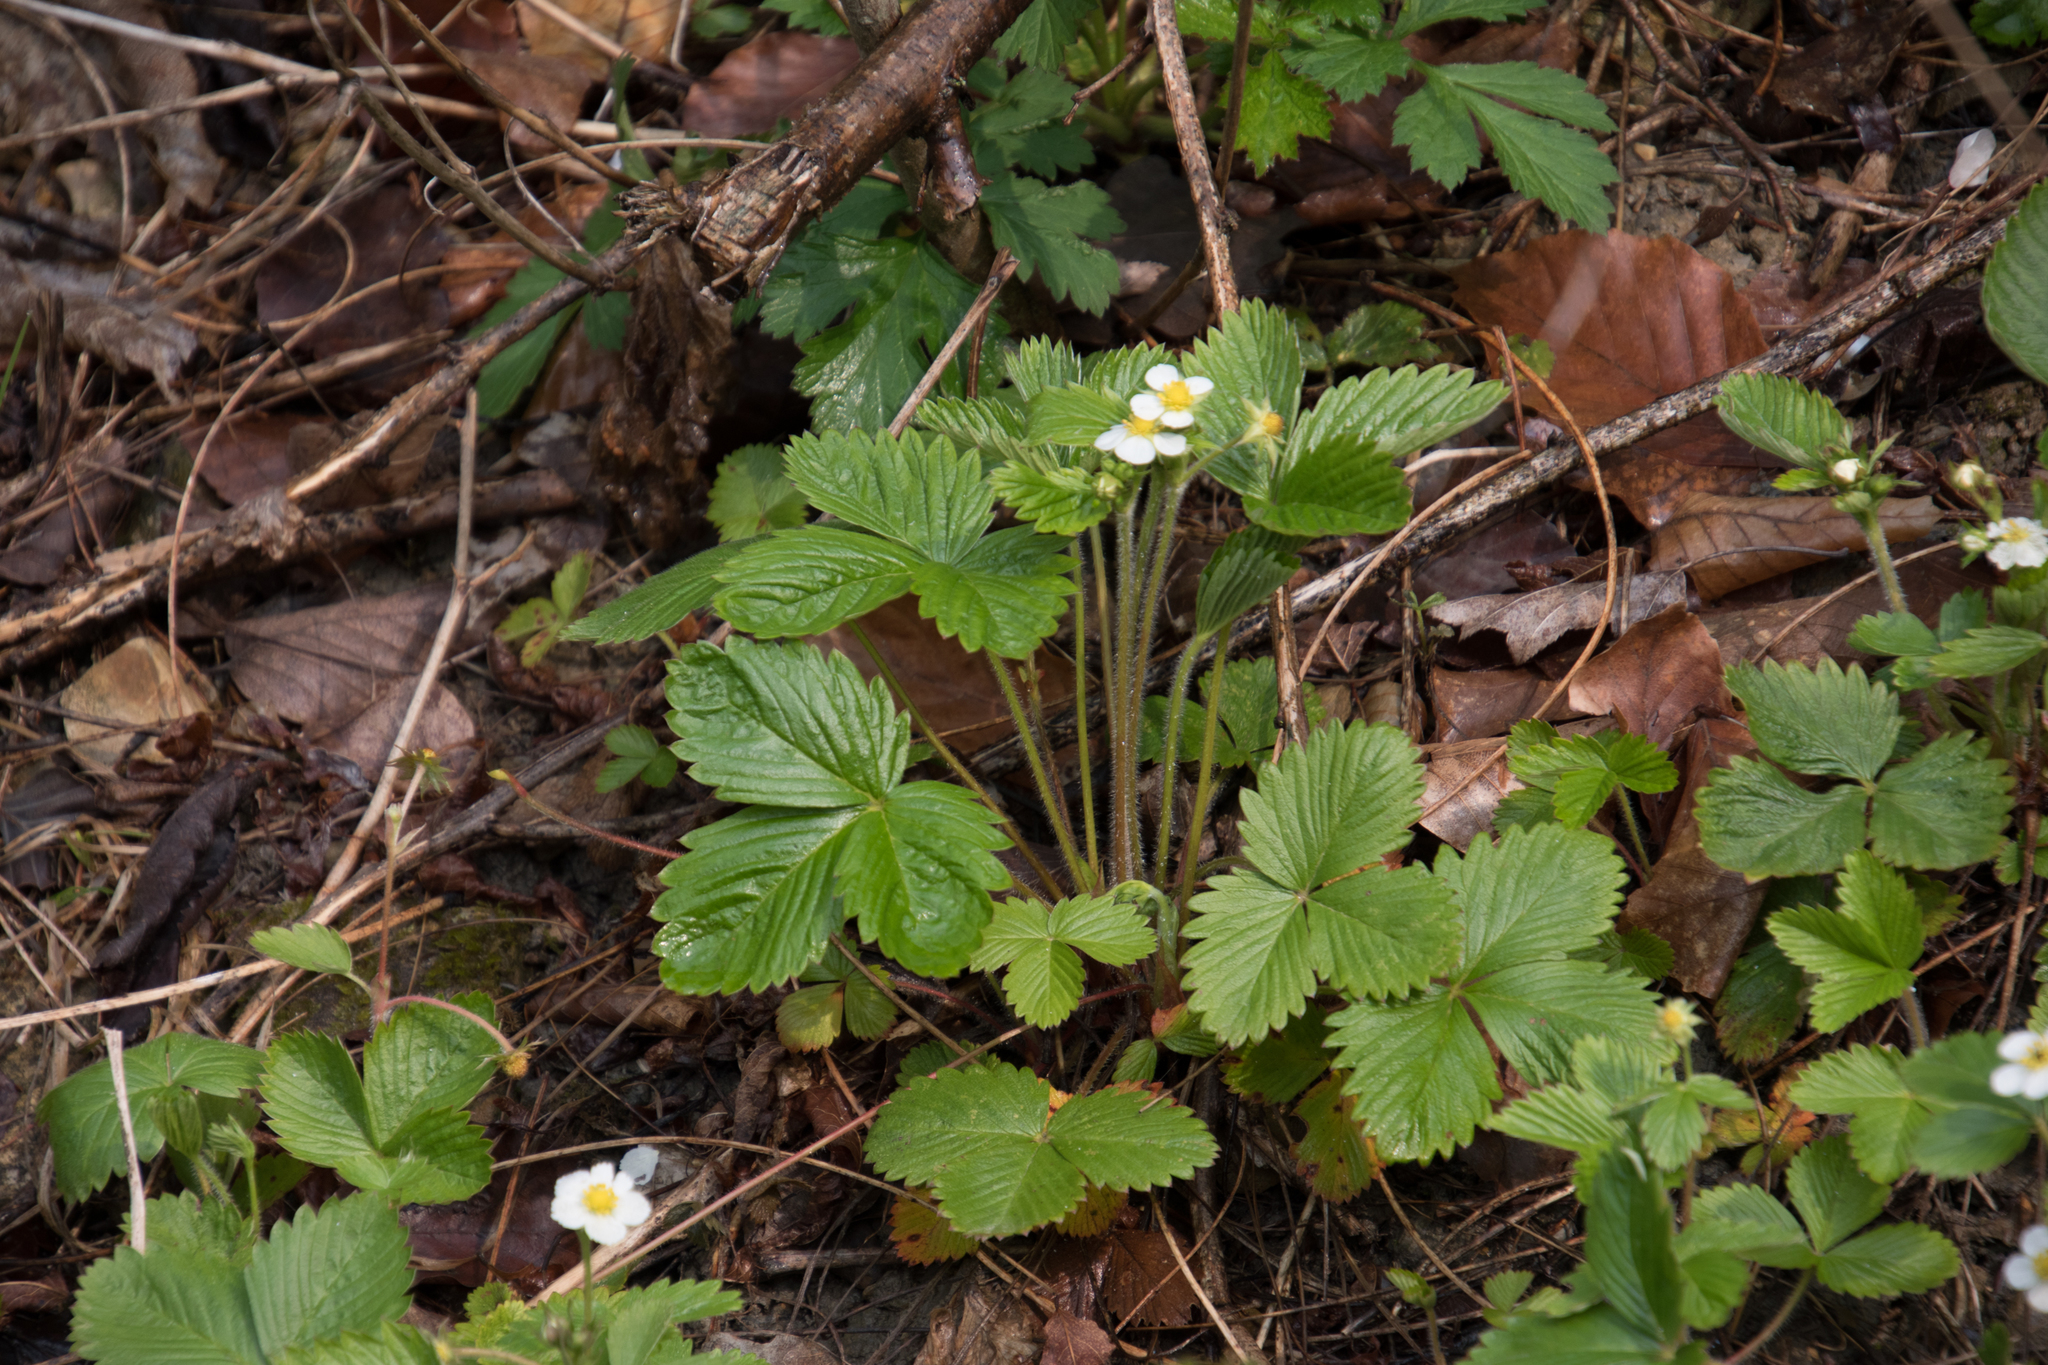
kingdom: Plantae
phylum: Tracheophyta
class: Magnoliopsida
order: Rosales
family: Rosaceae
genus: Fragaria
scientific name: Fragaria vesca
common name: Wild strawberry
